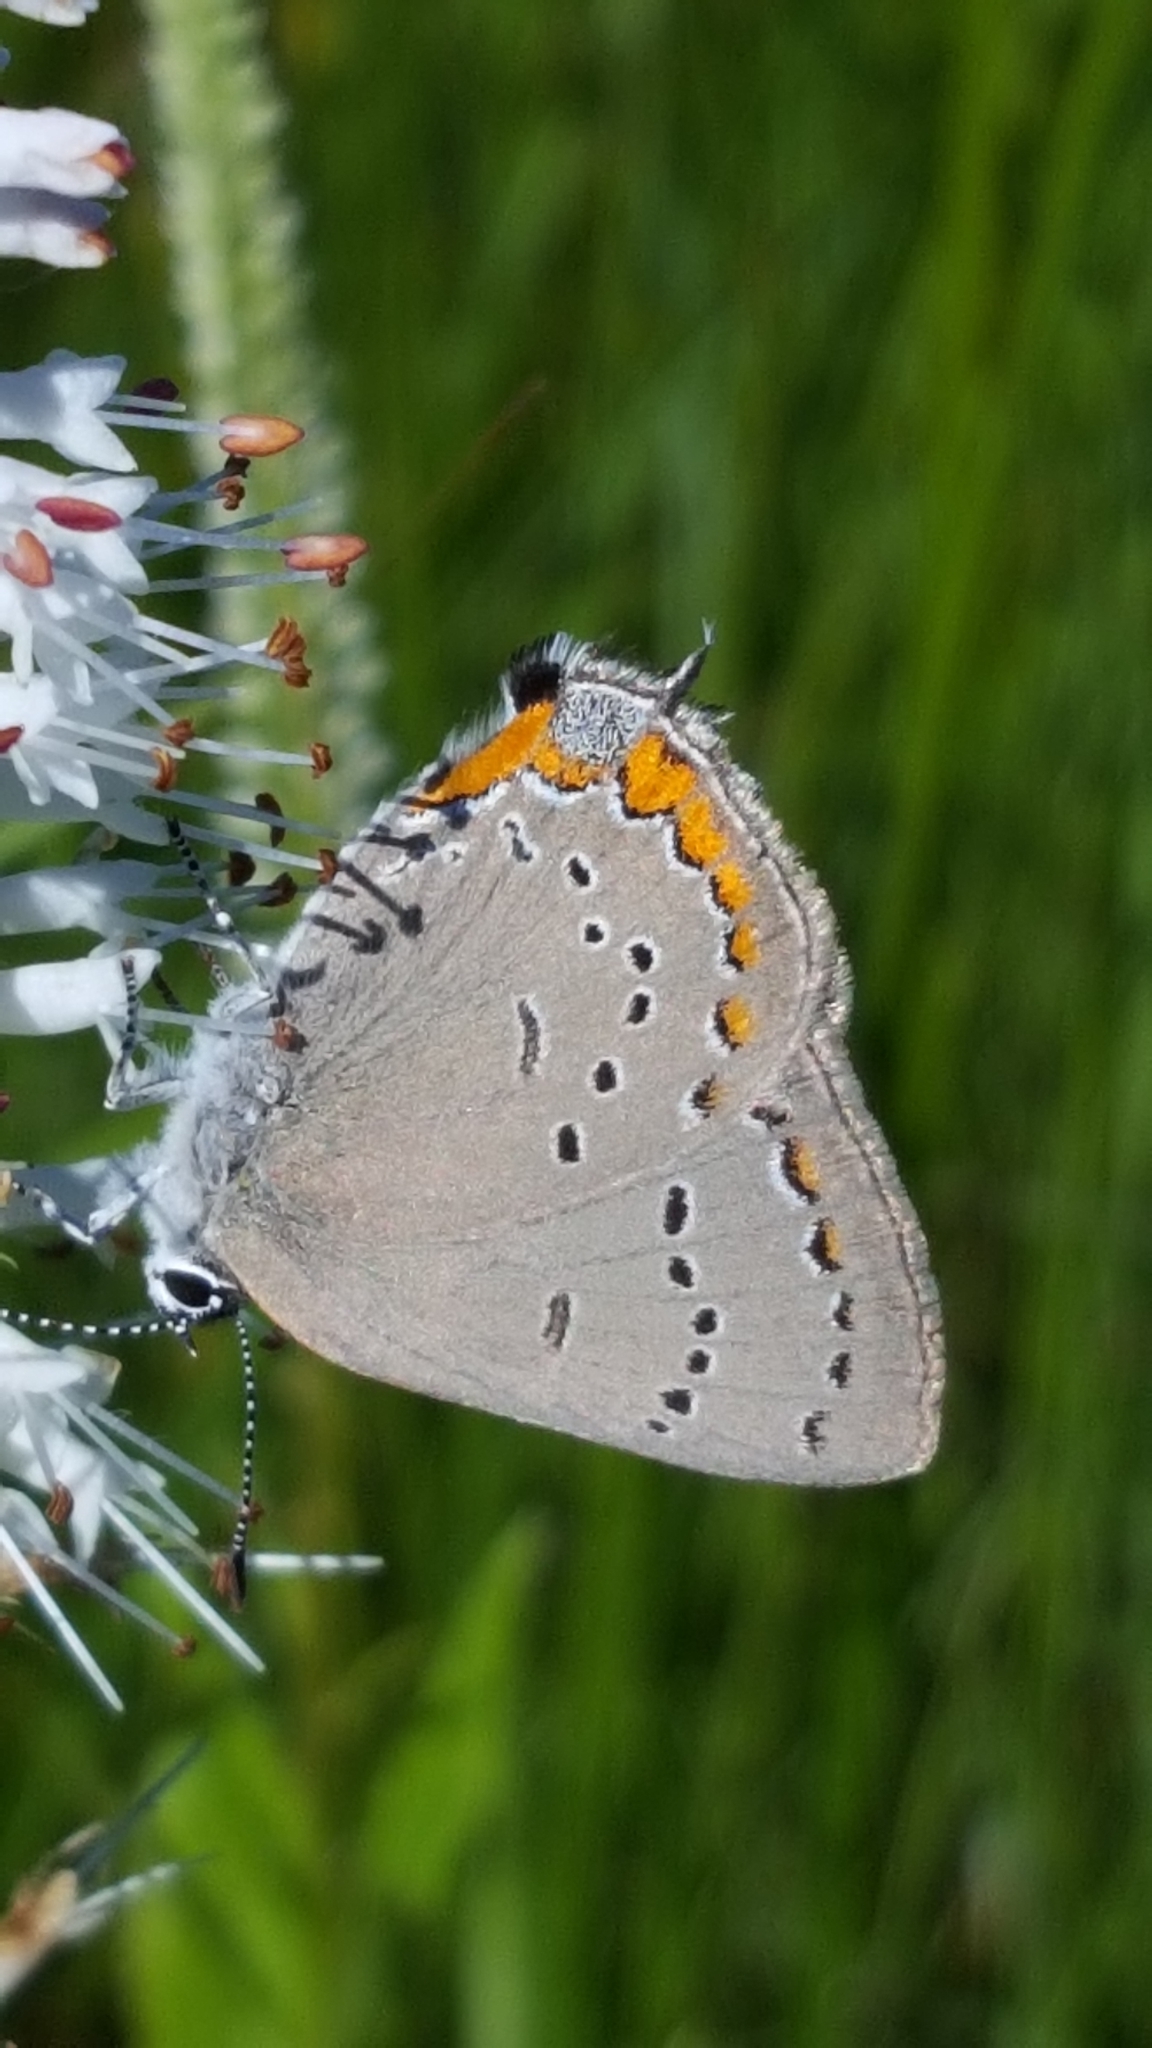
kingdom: Animalia
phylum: Arthropoda
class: Insecta
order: Lepidoptera
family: Lycaenidae
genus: Strymon
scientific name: Strymon acadica
